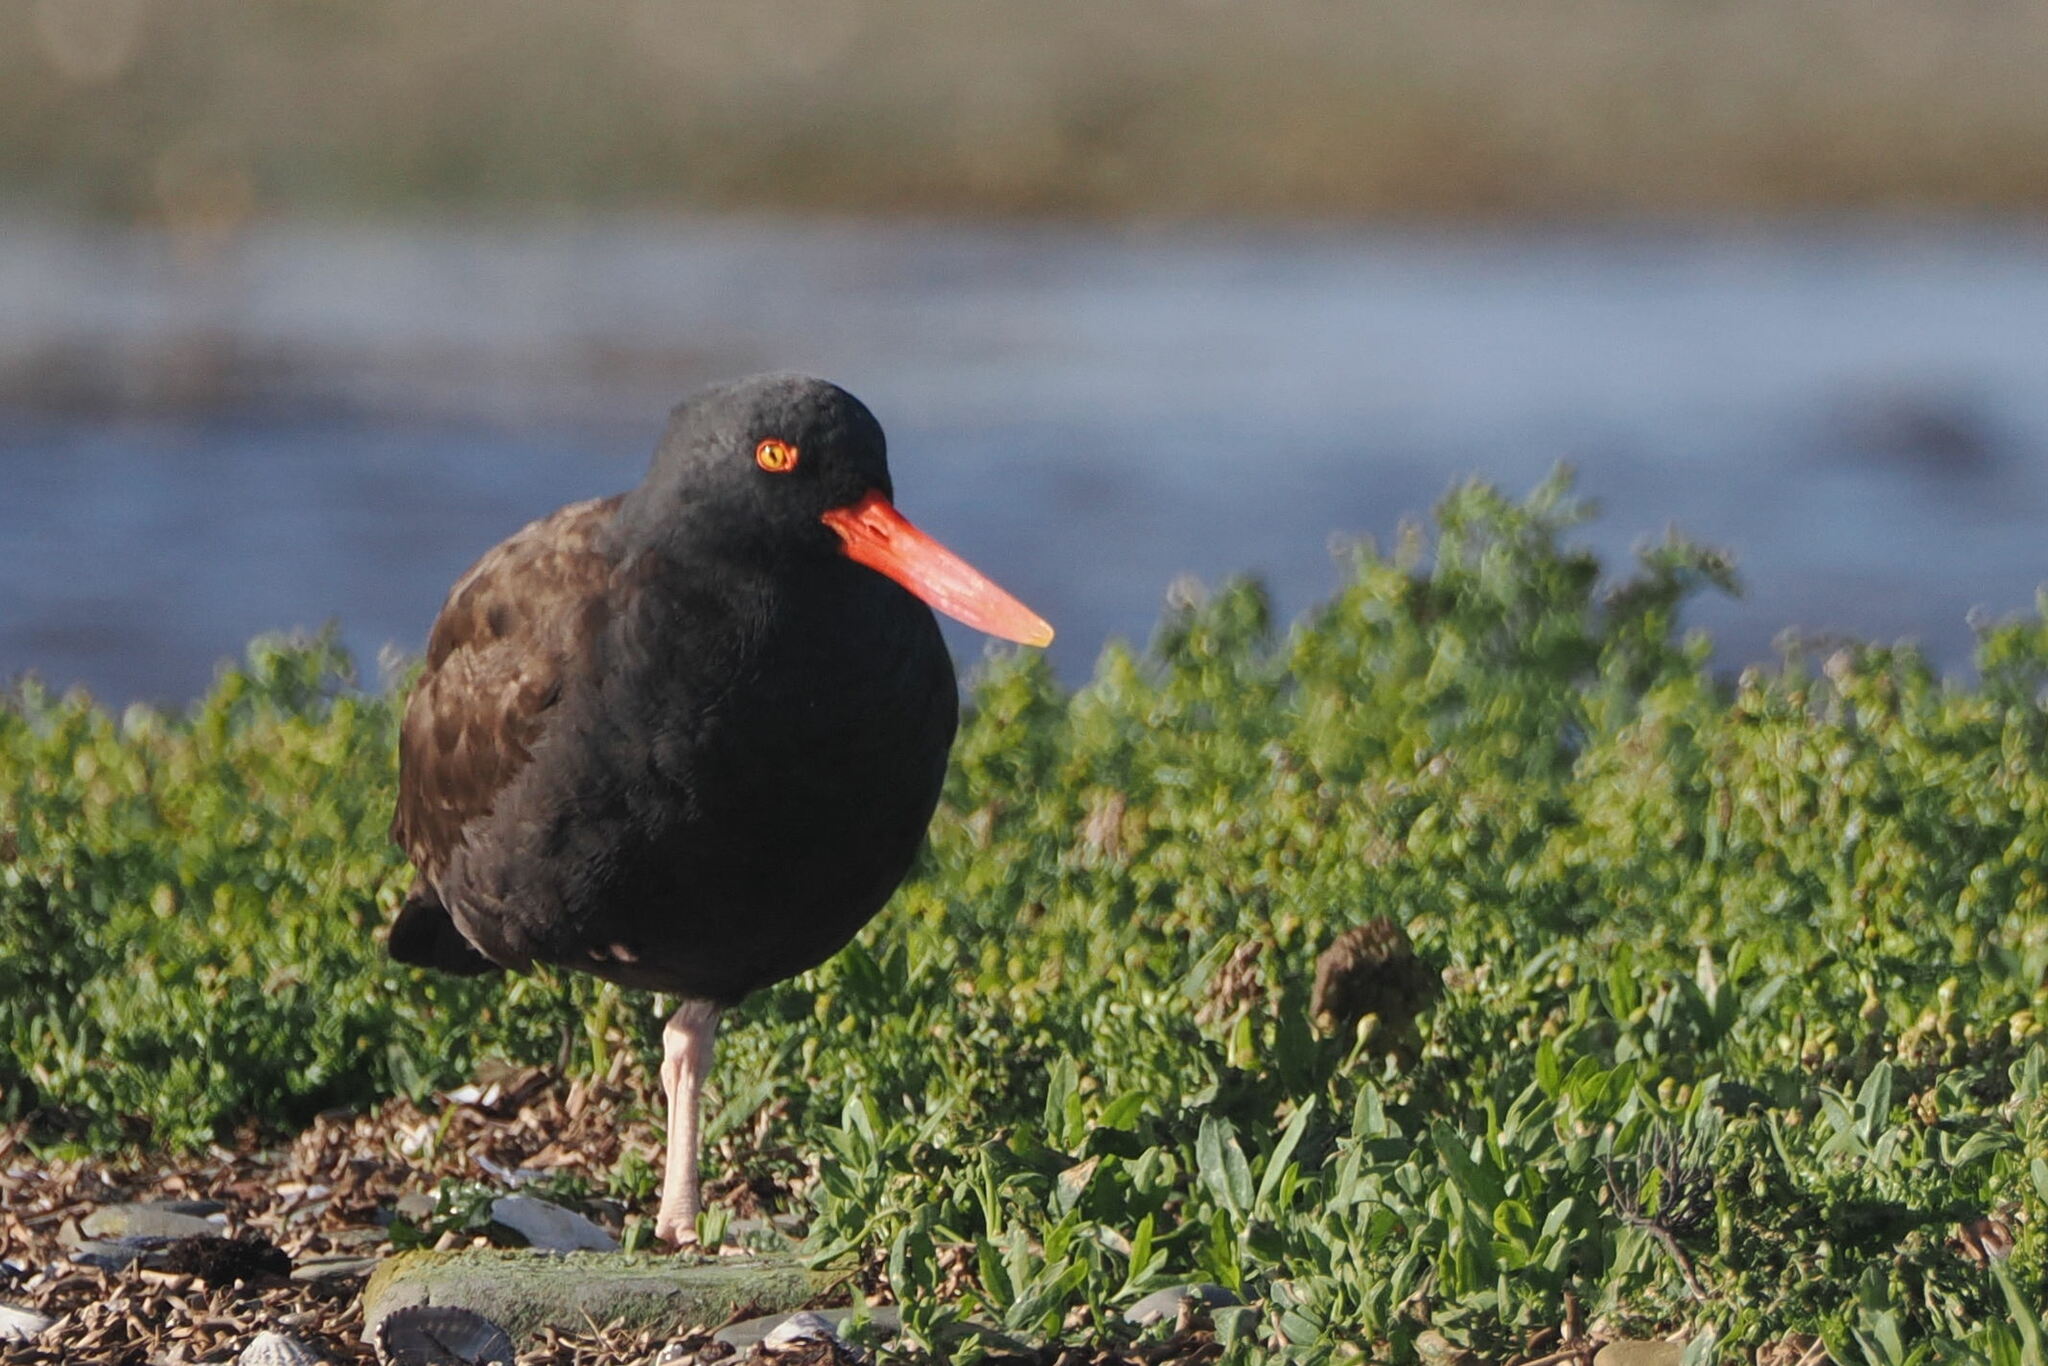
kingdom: Animalia
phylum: Chordata
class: Aves
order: Charadriiformes
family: Haematopodidae
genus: Haematopus
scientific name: Haematopus ater
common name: Blackish oystercatcher
